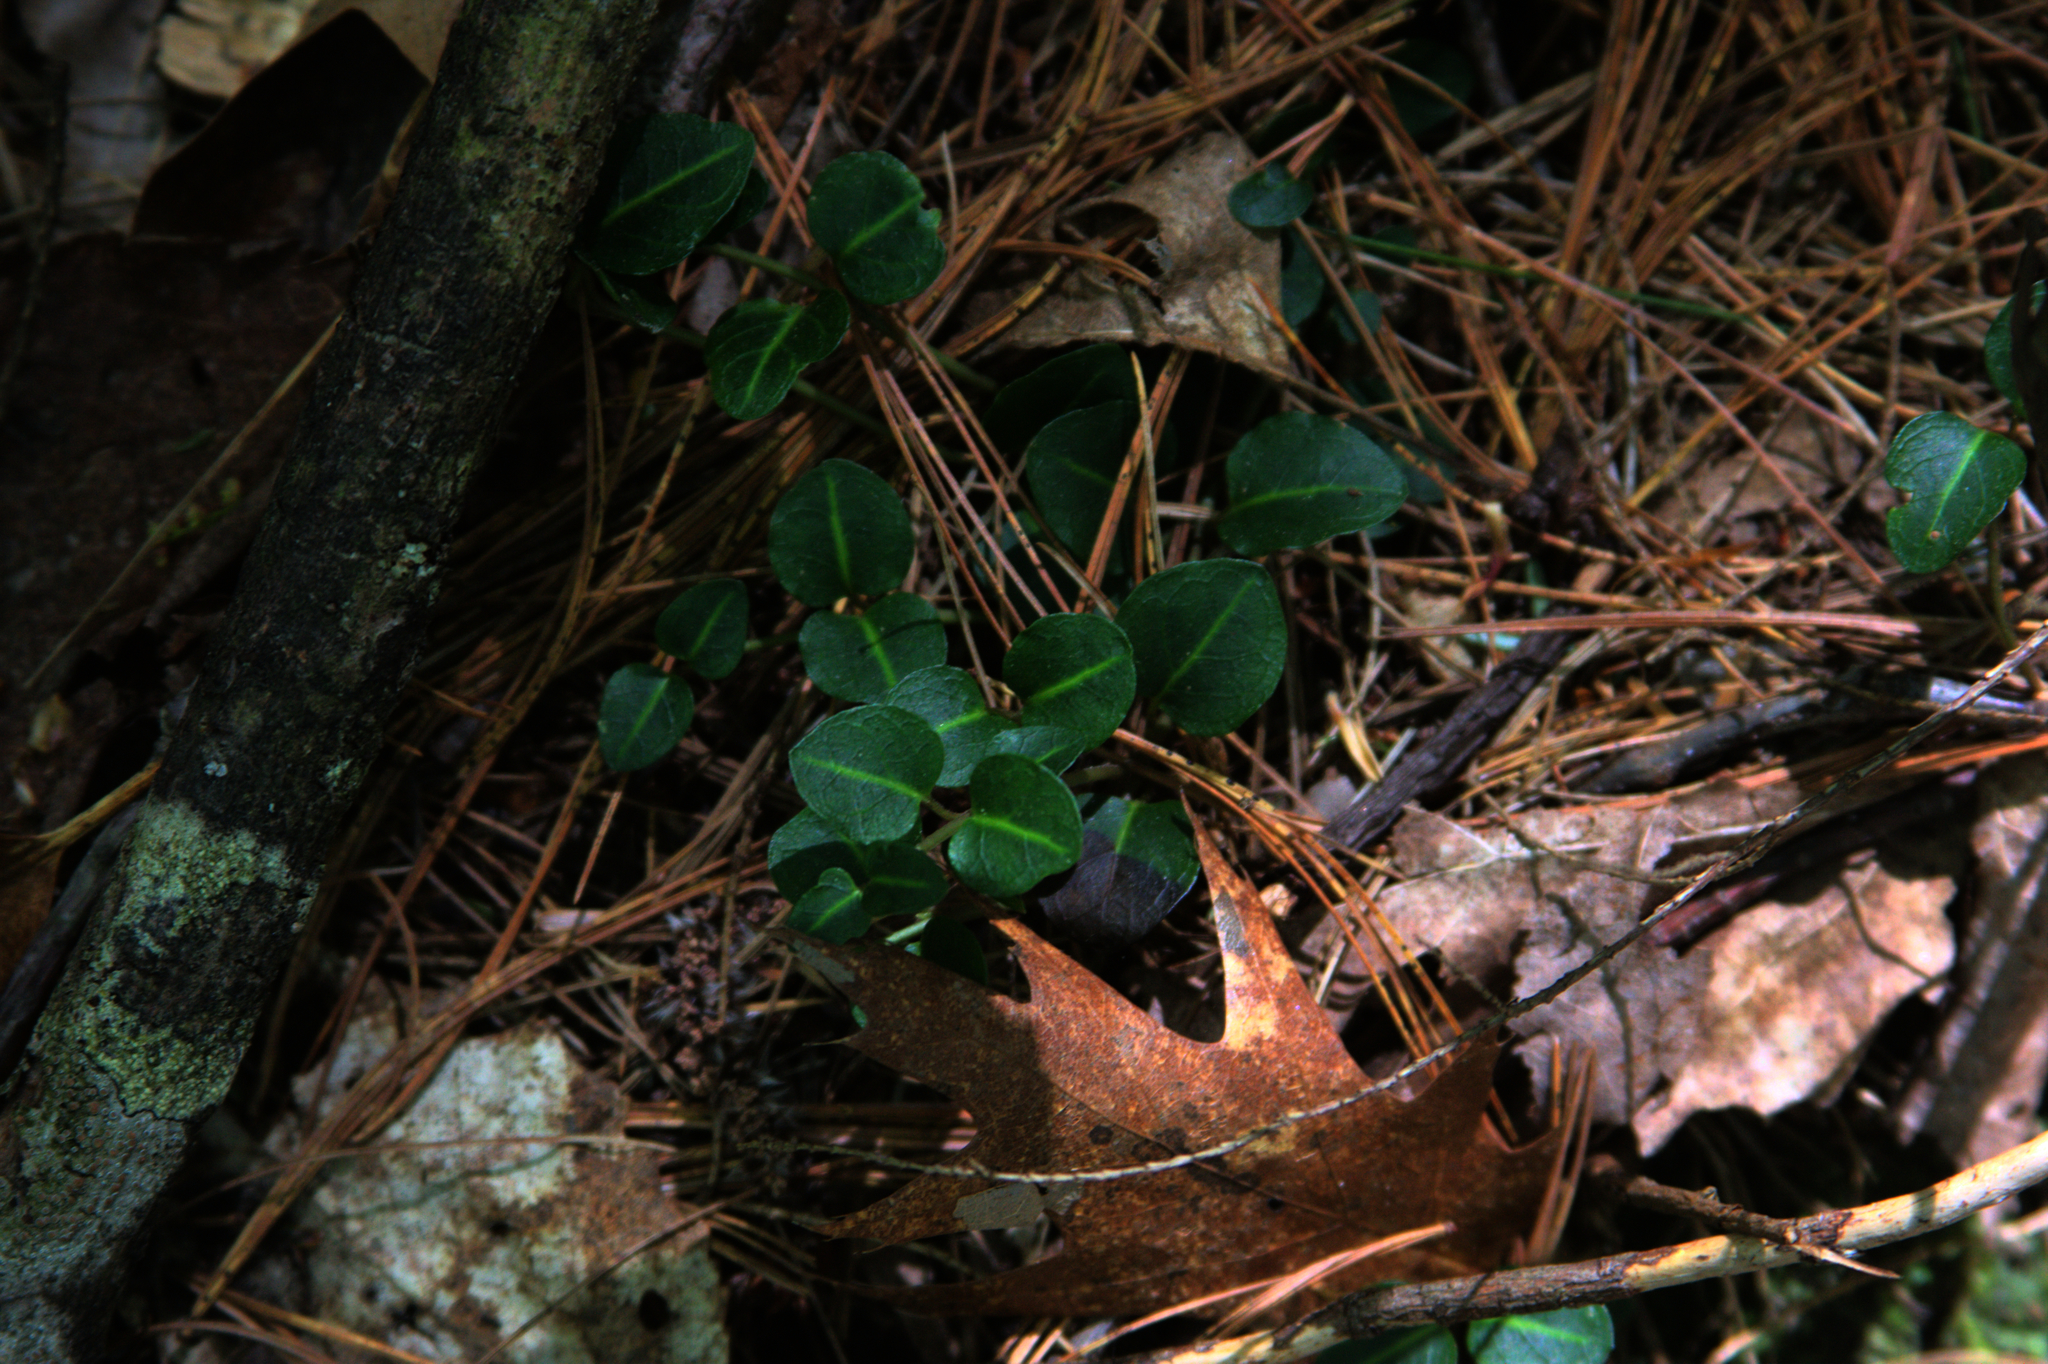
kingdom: Plantae
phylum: Tracheophyta
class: Magnoliopsida
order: Gentianales
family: Rubiaceae
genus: Mitchella
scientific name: Mitchella repens
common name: Partridge-berry
